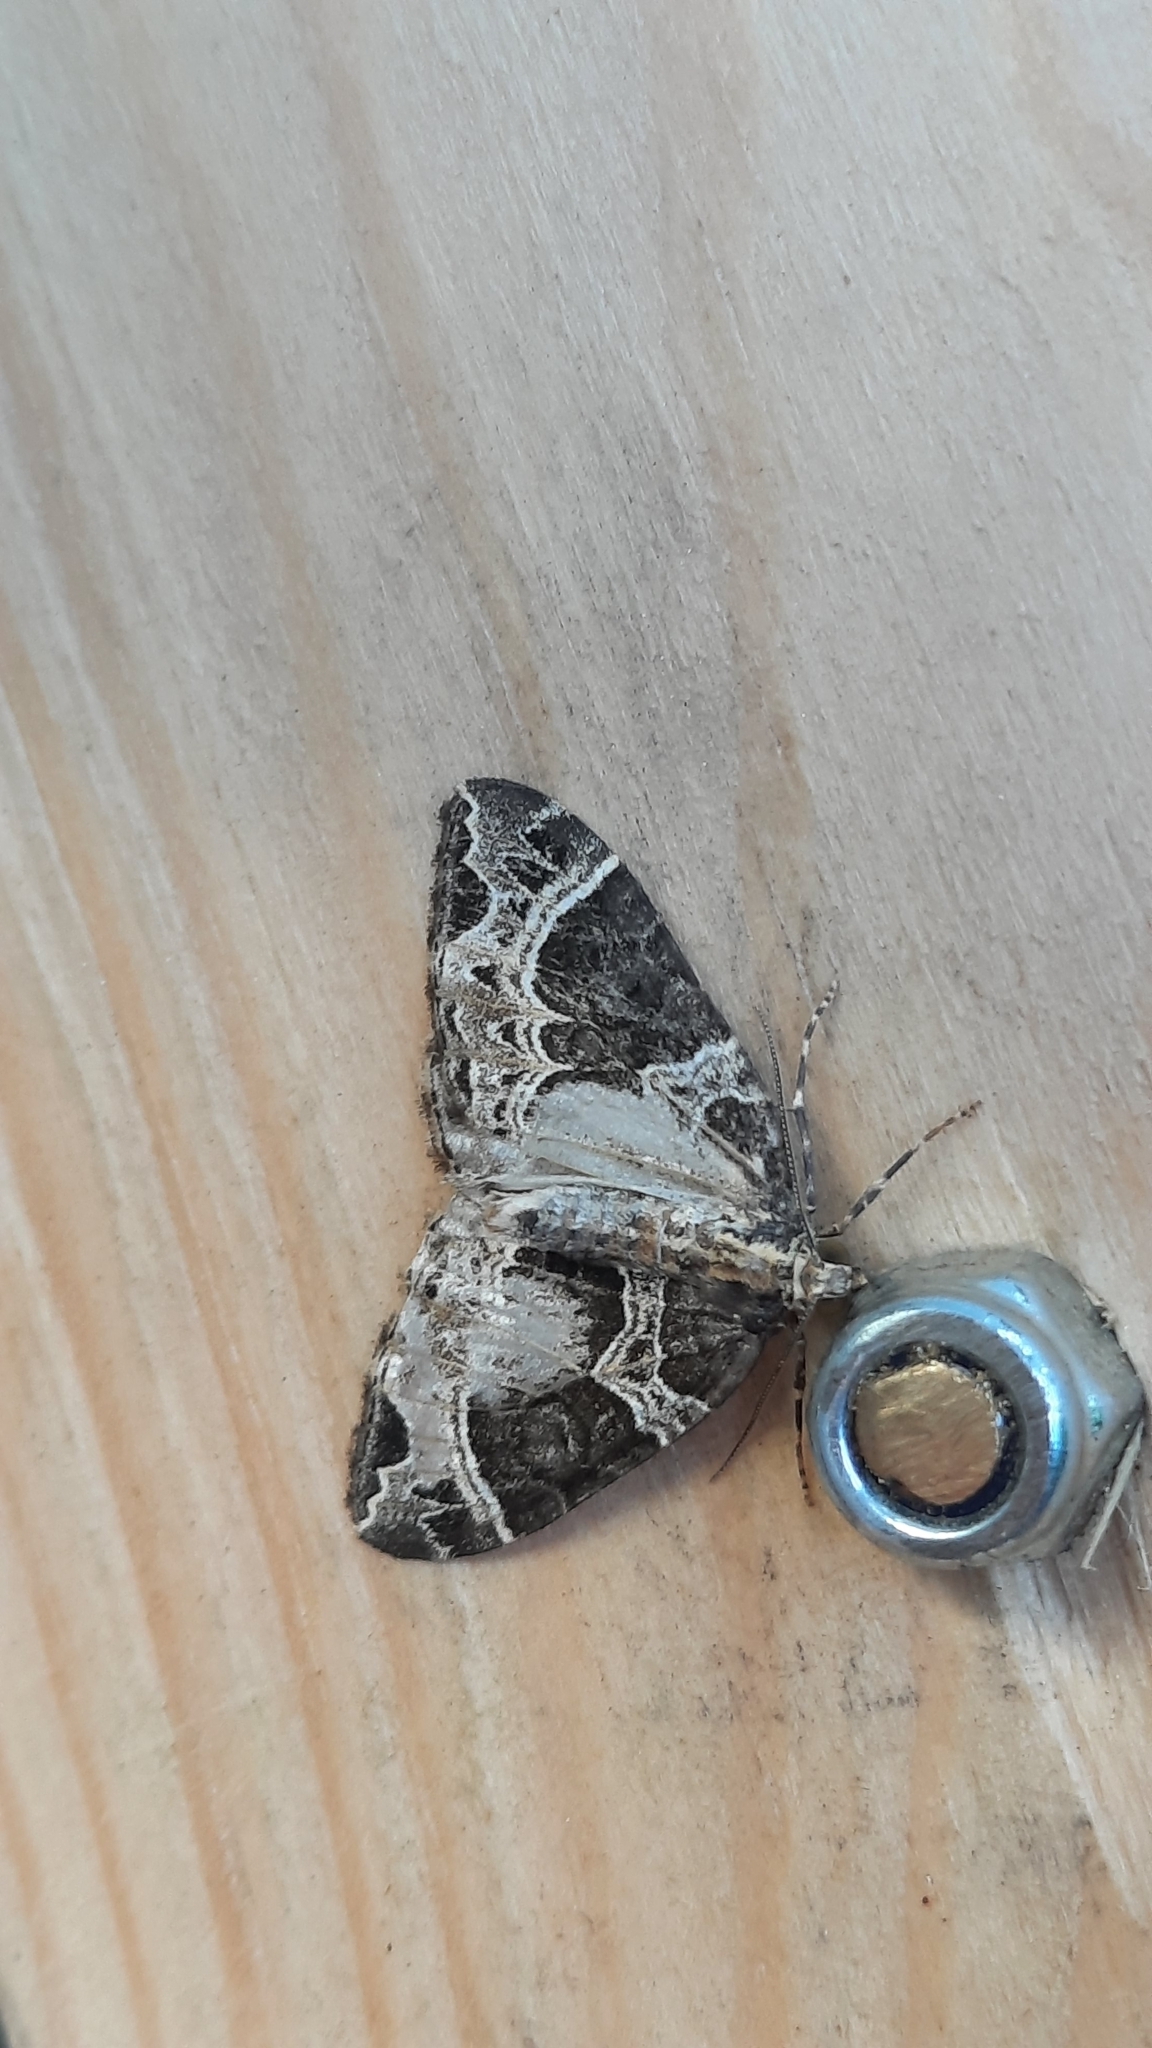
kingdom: Animalia
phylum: Arthropoda
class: Insecta
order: Lepidoptera
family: Geometridae
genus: Ecliptopera
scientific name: Ecliptopera silaceata
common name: Small phoenix
